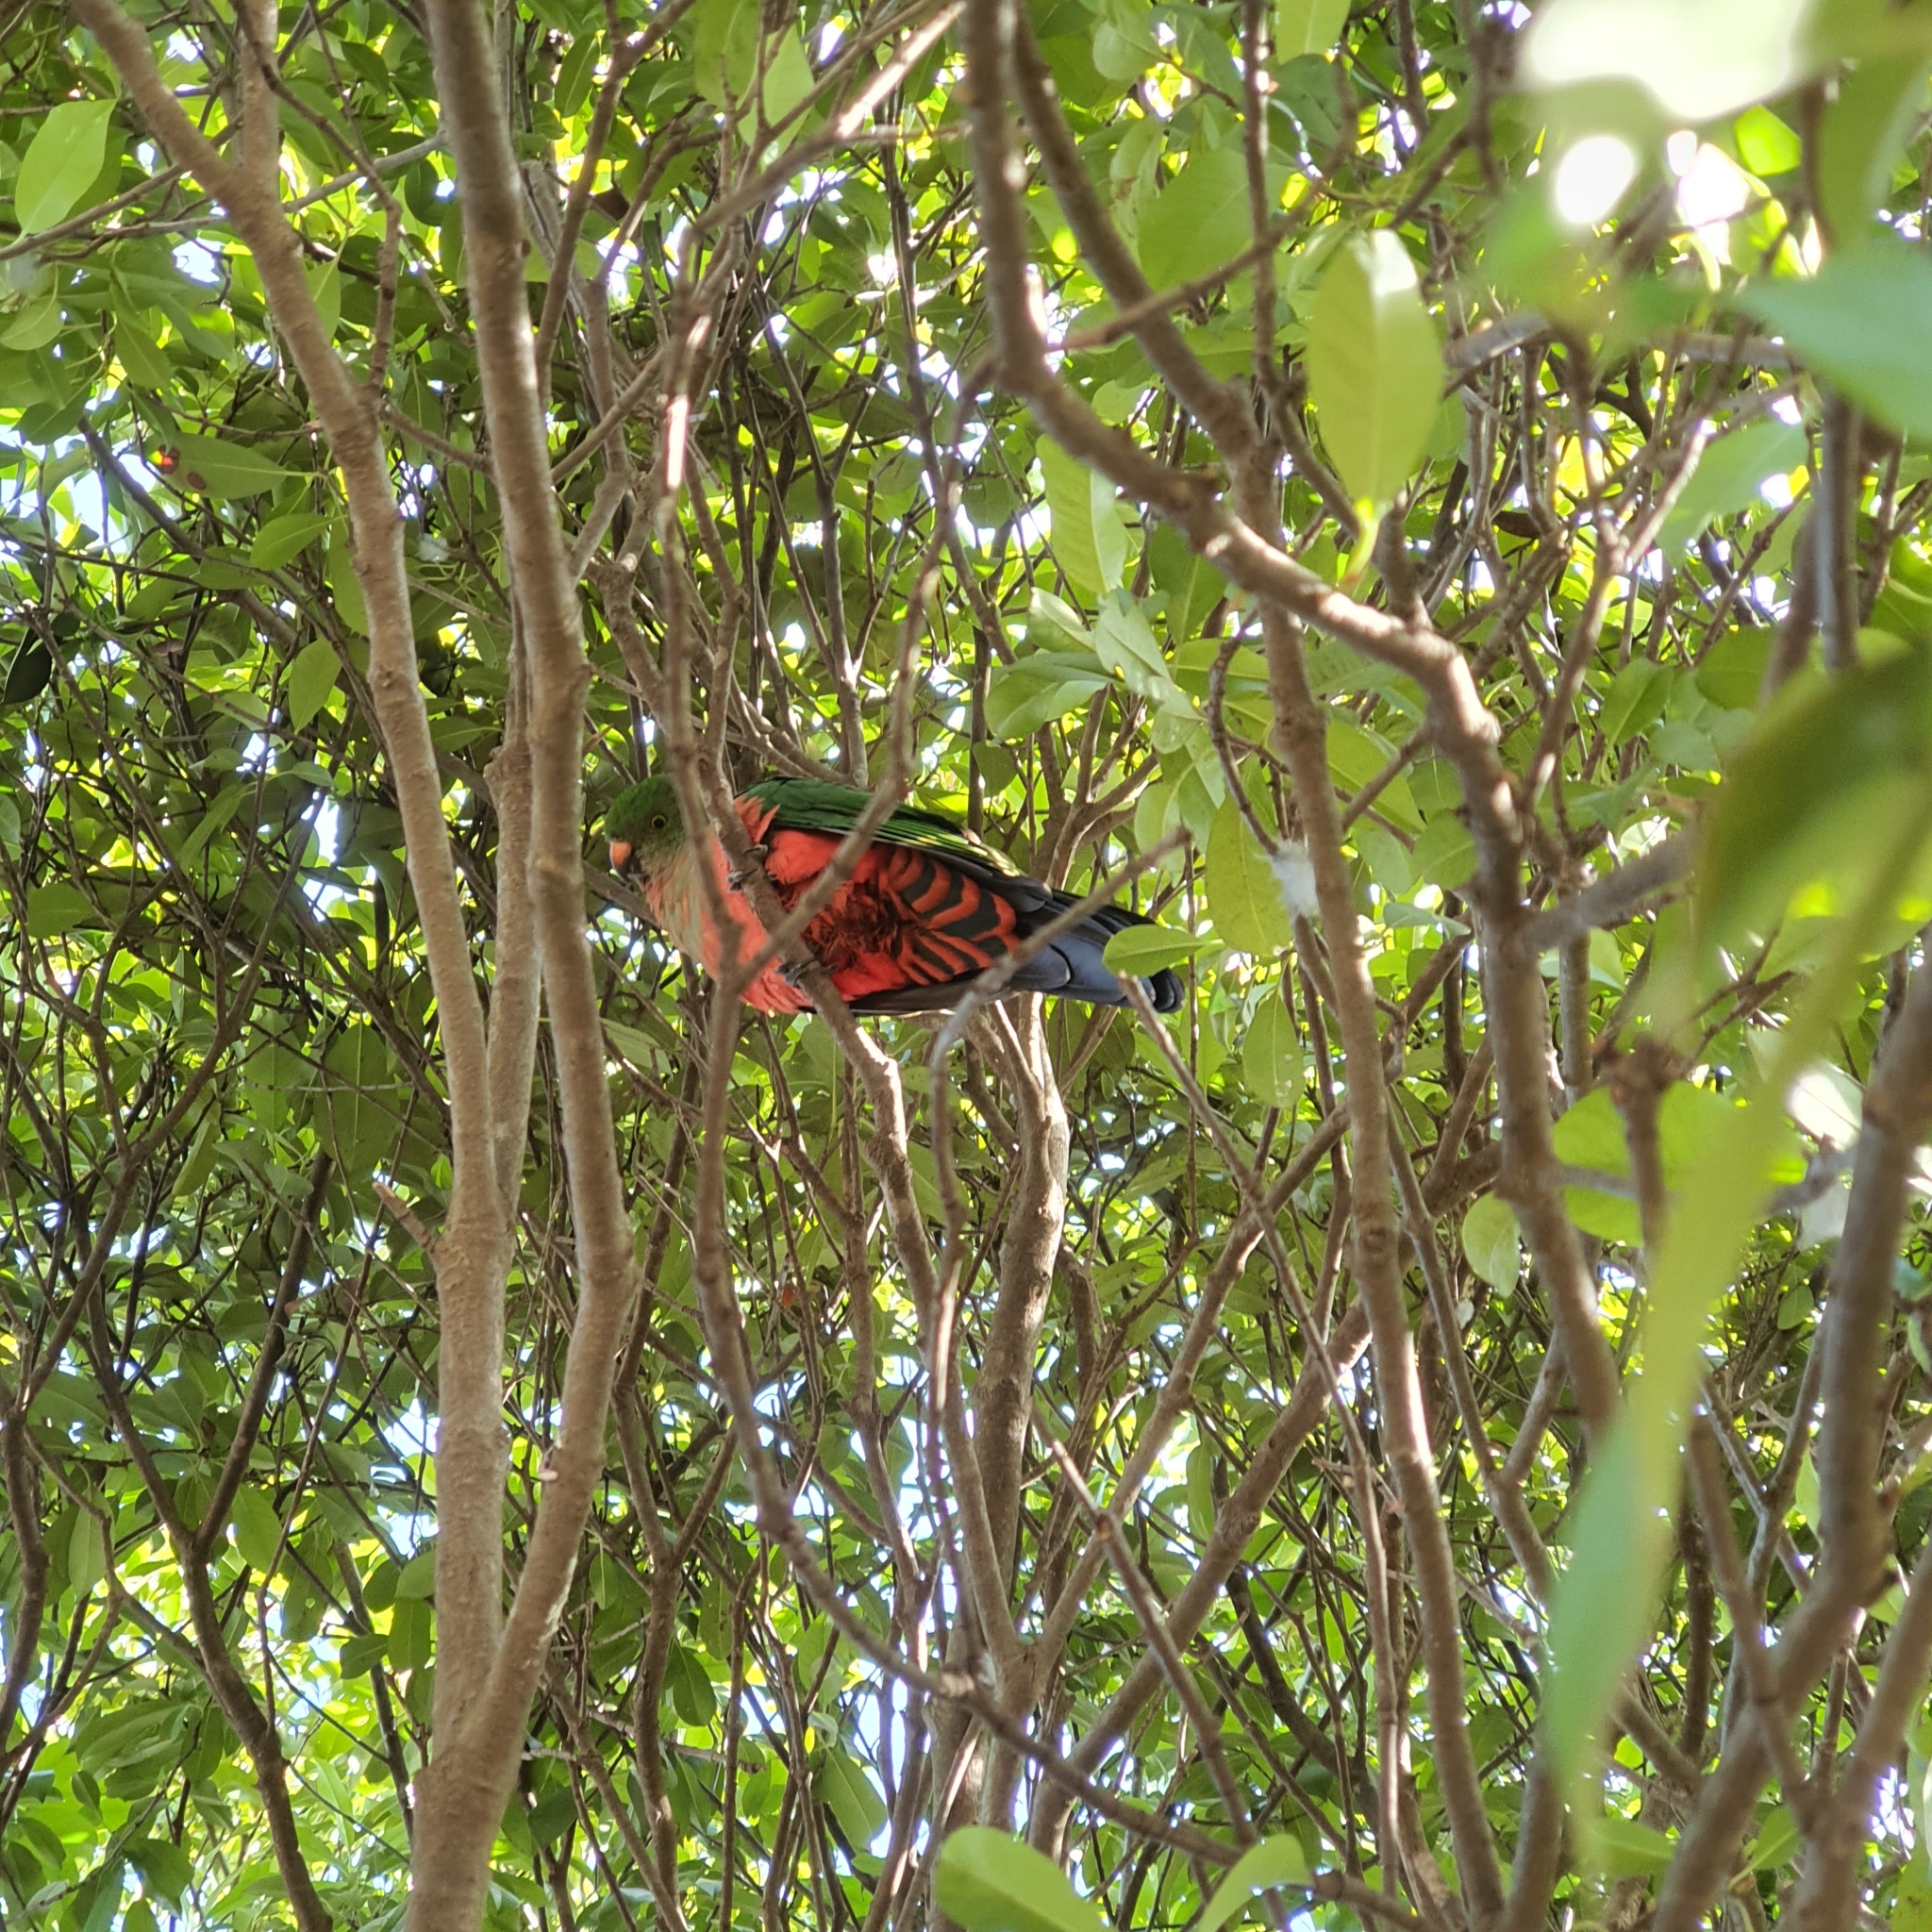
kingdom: Animalia
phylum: Chordata
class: Aves
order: Psittaciformes
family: Psittacidae
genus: Alisterus
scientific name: Alisterus scapularis
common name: Australian king parrot
